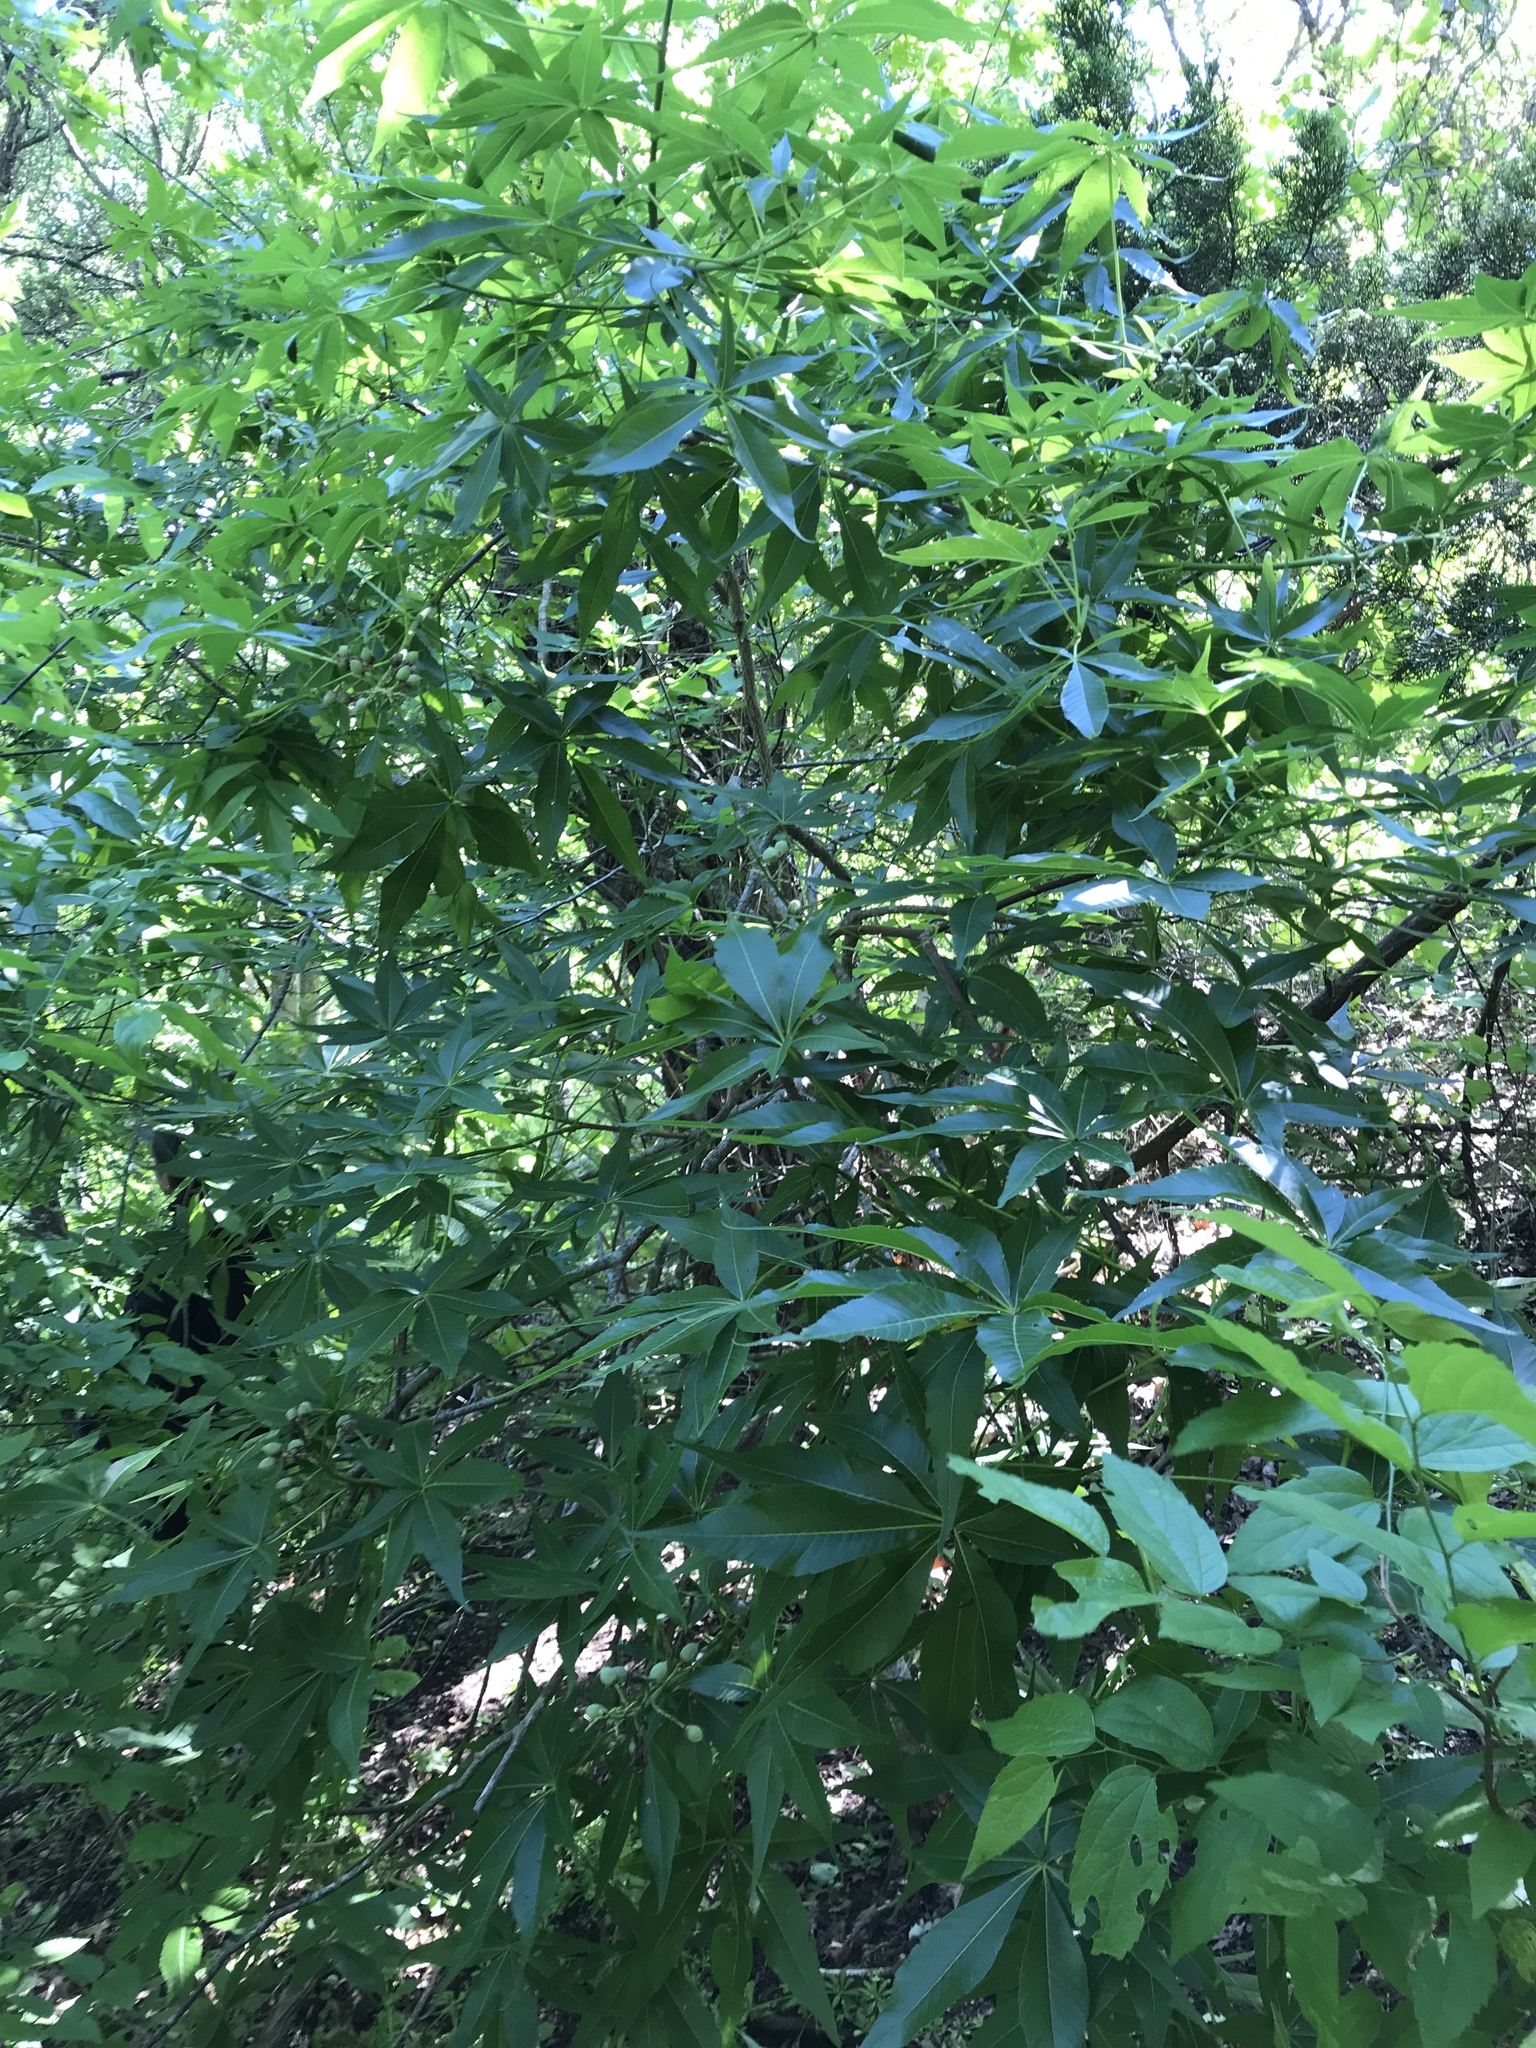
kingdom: Plantae
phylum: Tracheophyta
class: Magnoliopsida
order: Sapindales
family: Sapindaceae
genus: Aesculus
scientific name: Aesculus glabra
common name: Ohio buckeye
